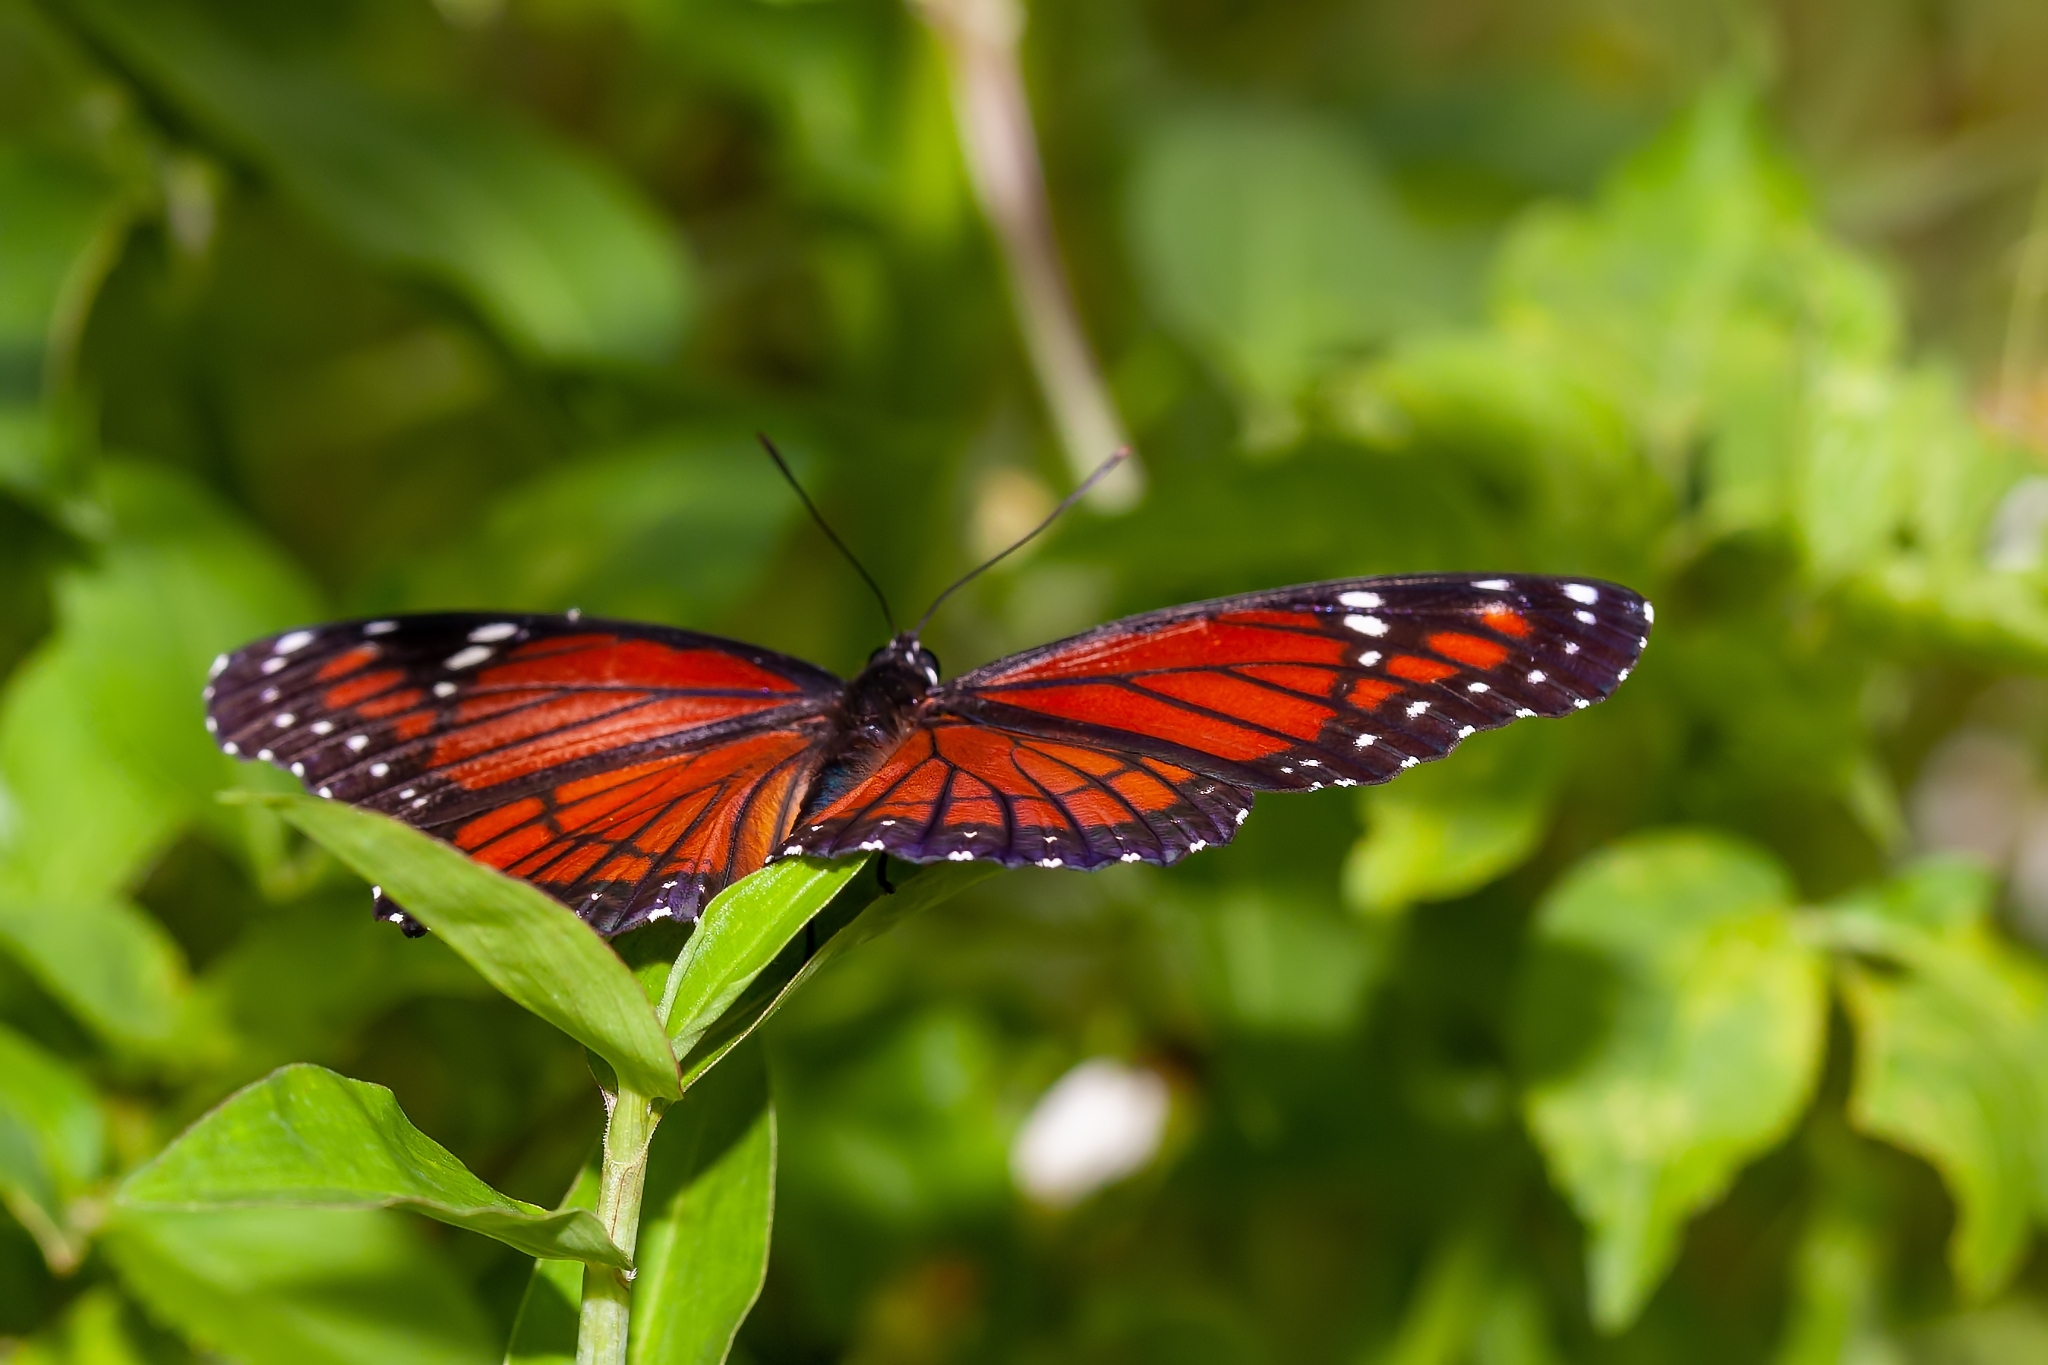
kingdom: Animalia
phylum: Arthropoda
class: Insecta
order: Lepidoptera
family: Nymphalidae
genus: Limenitis
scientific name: Limenitis archippus
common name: Viceroy
